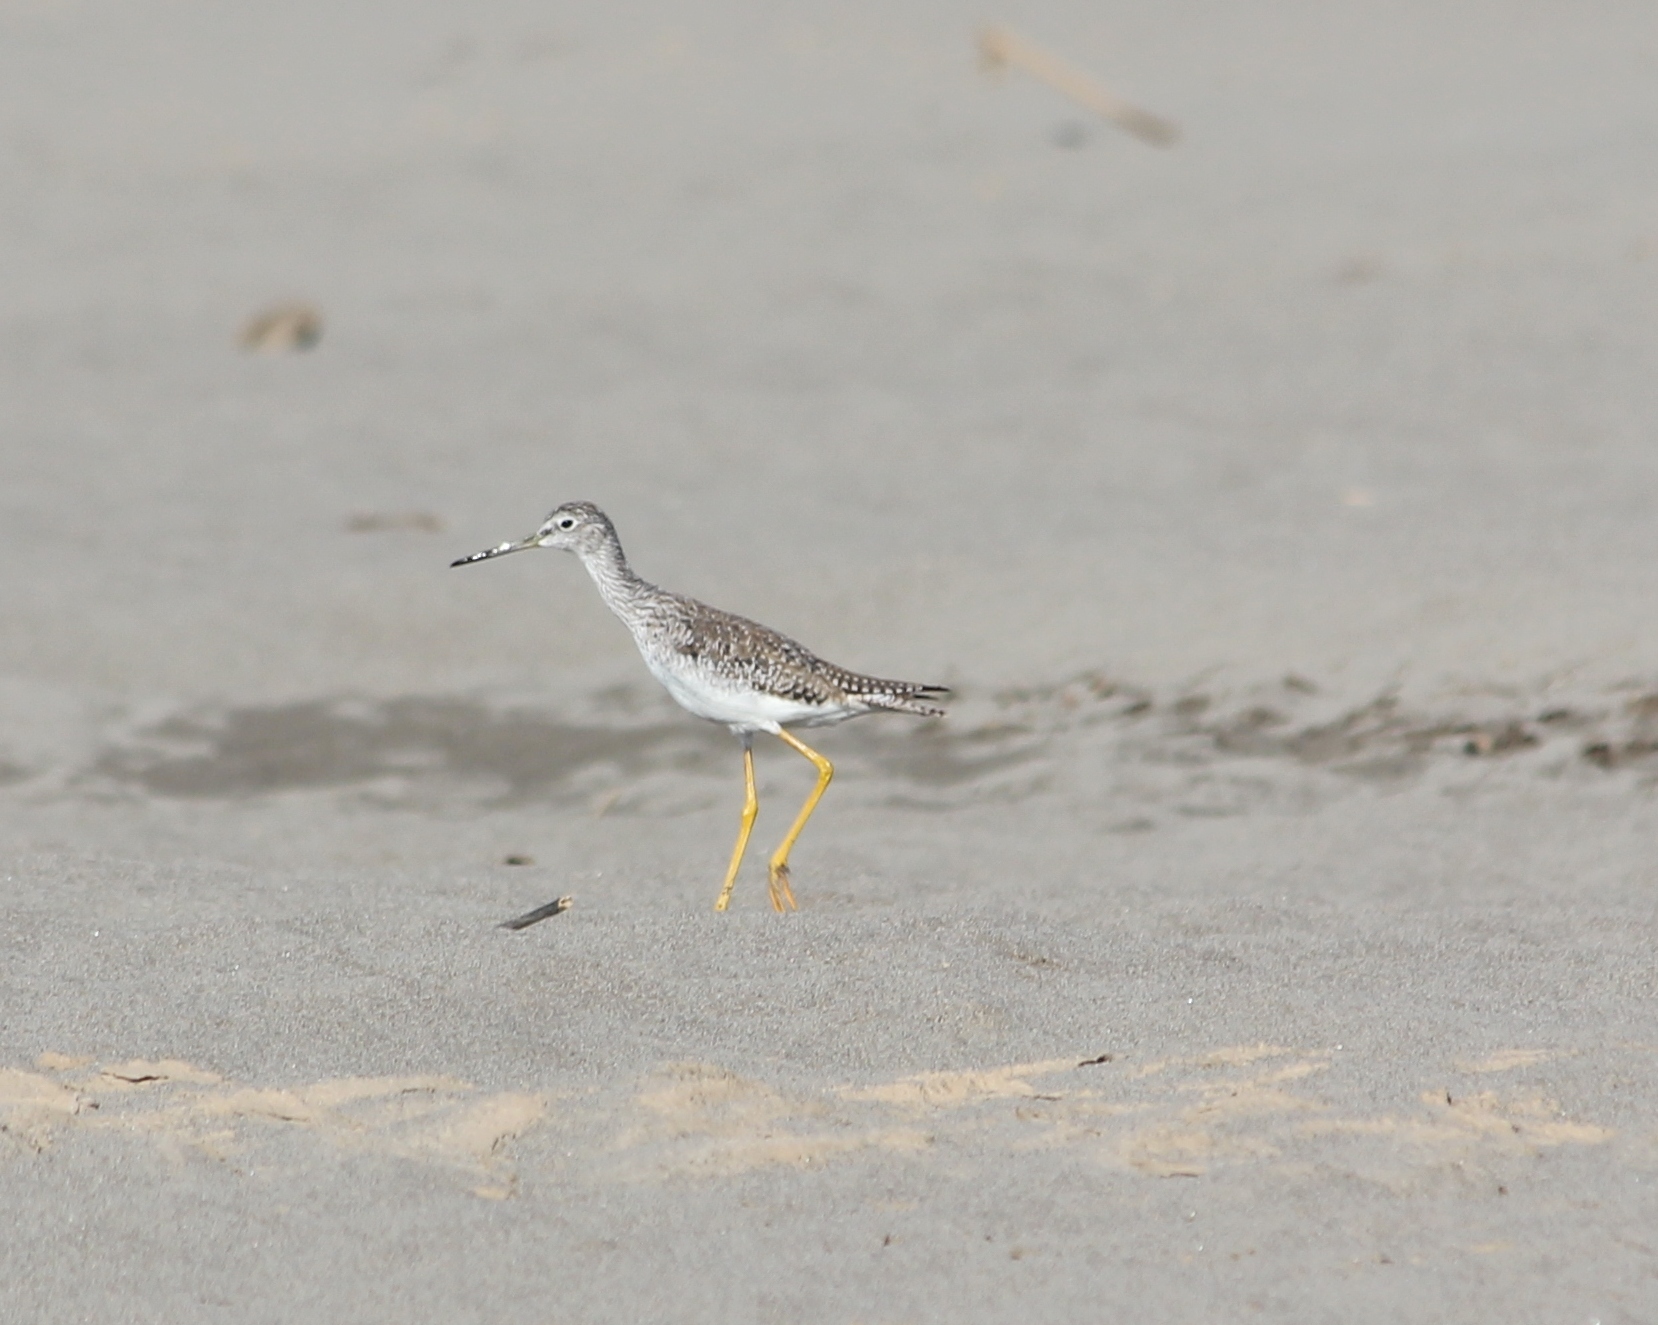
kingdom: Animalia
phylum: Chordata
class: Aves
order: Charadriiformes
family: Scolopacidae
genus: Tringa
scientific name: Tringa melanoleuca
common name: Greater yellowlegs
